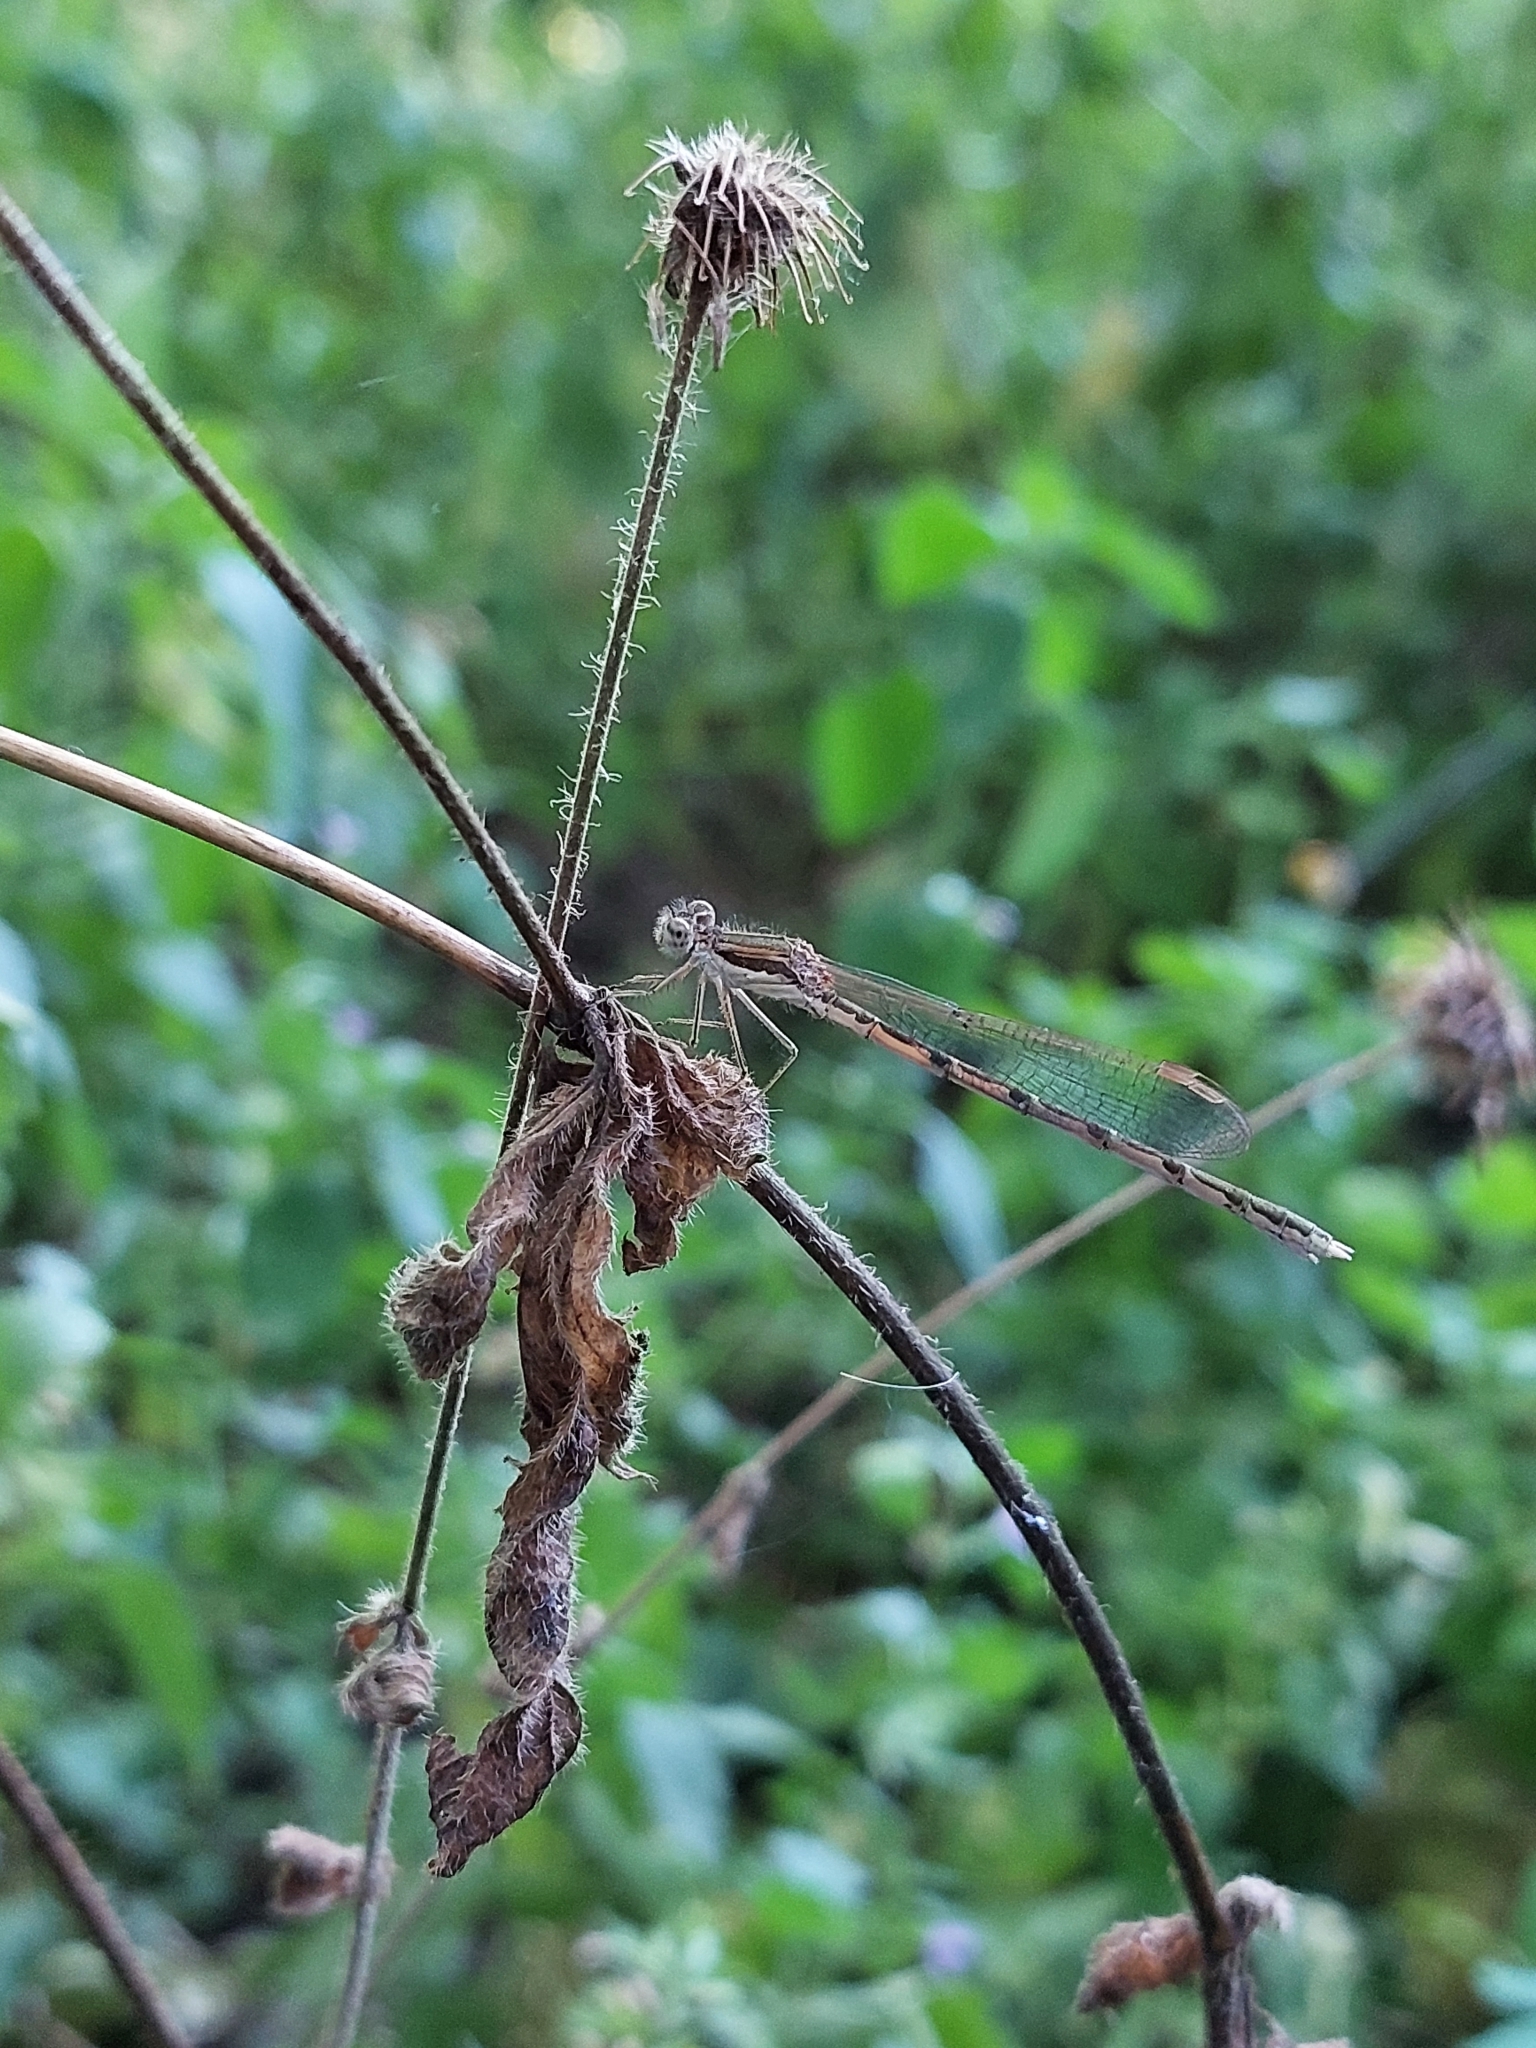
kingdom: Animalia
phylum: Arthropoda
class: Insecta
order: Odonata
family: Lestidae
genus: Sympecma
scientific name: Sympecma fusca
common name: Common winter damsel
